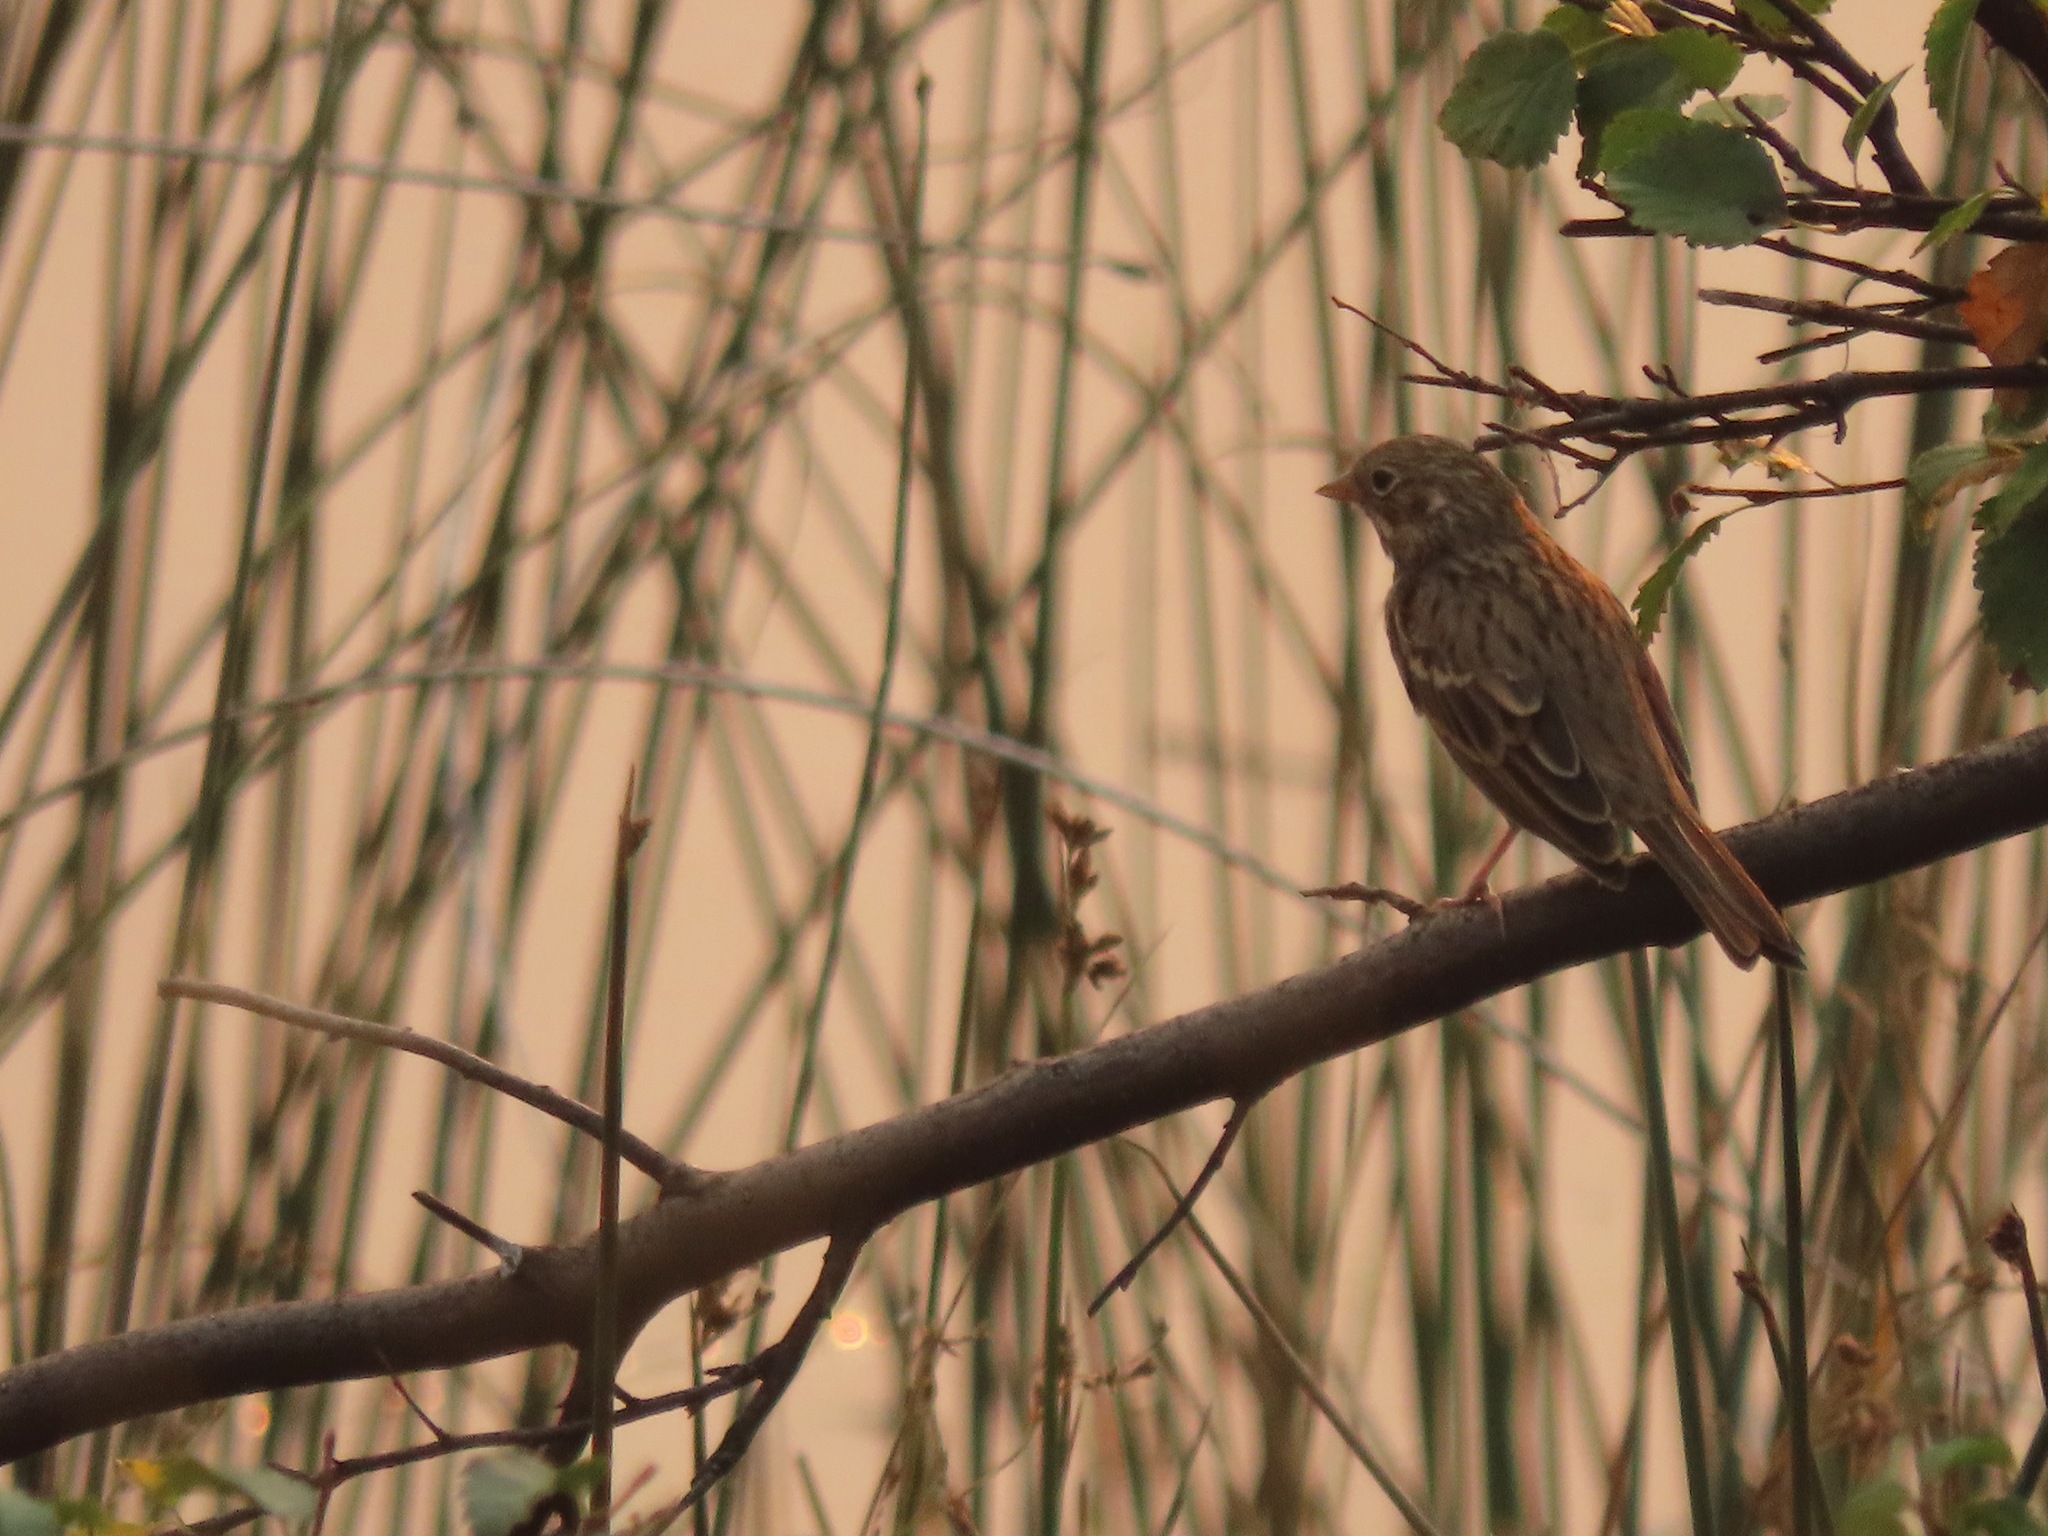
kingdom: Animalia
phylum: Chordata
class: Aves
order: Passeriformes
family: Passerellidae
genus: Pooecetes
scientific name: Pooecetes gramineus
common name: Vesper sparrow
